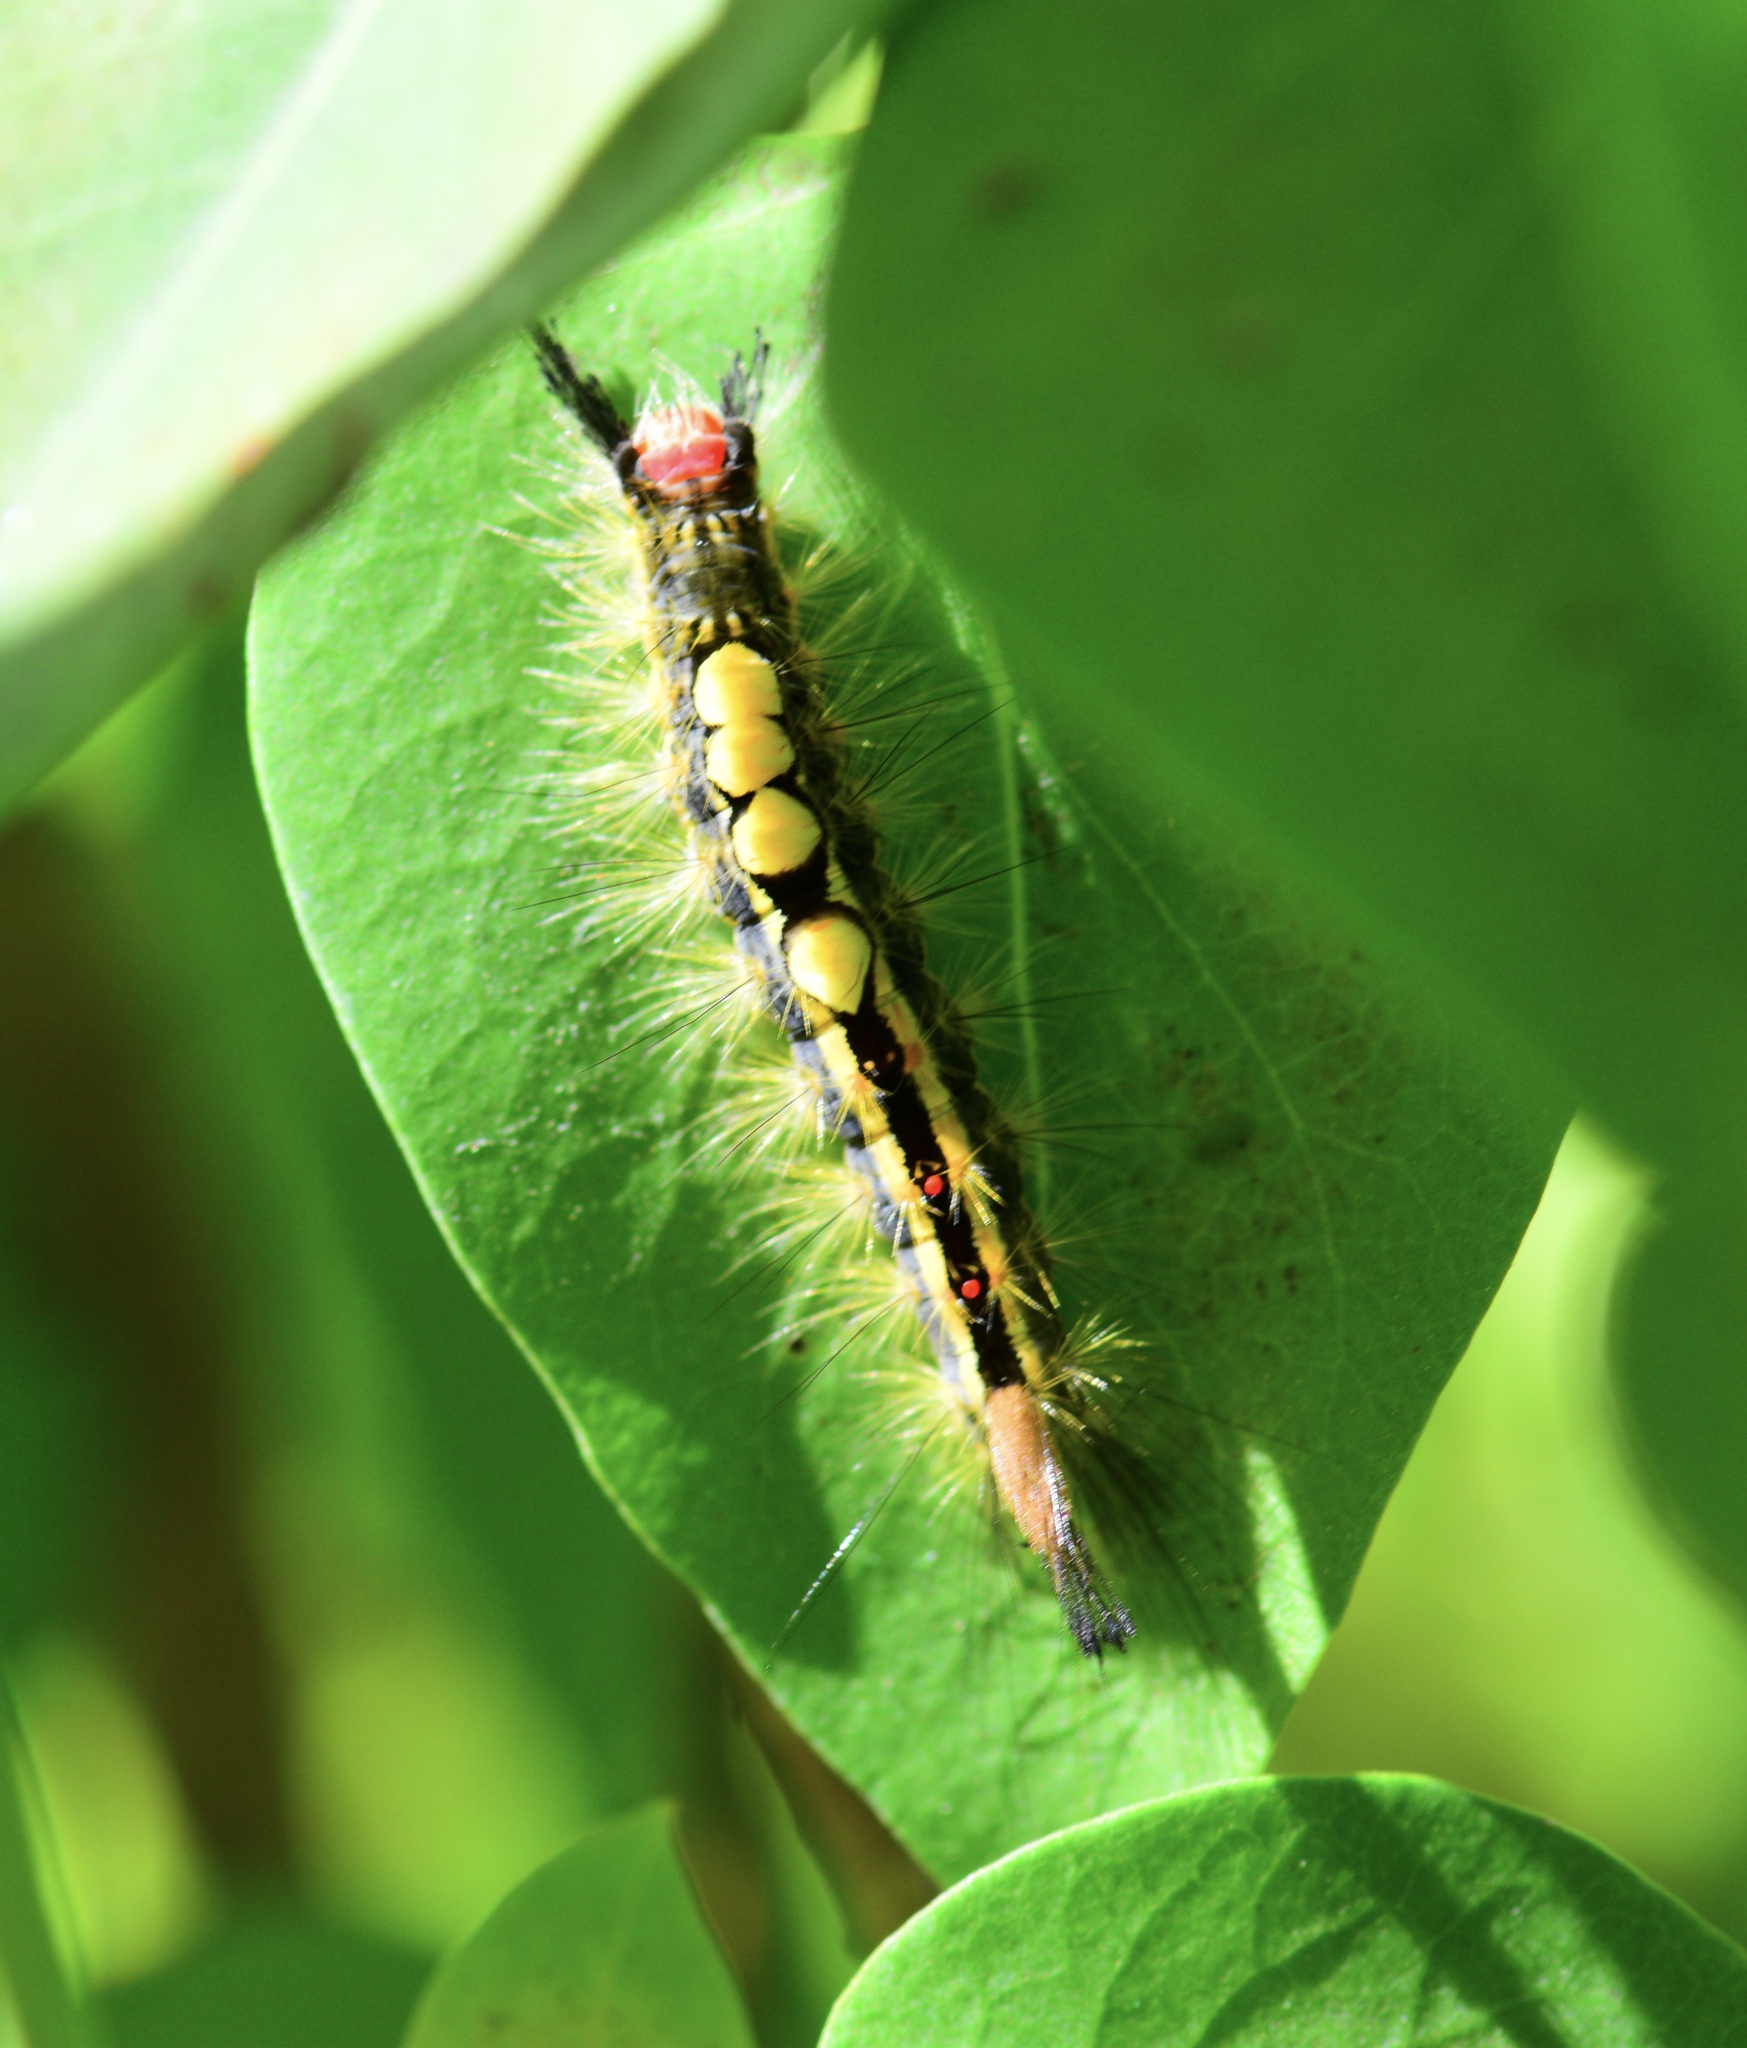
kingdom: Animalia
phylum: Arthropoda
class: Insecta
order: Lepidoptera
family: Erebidae
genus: Orgyia
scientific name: Orgyia leucostigma
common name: White-marked tussock moth
